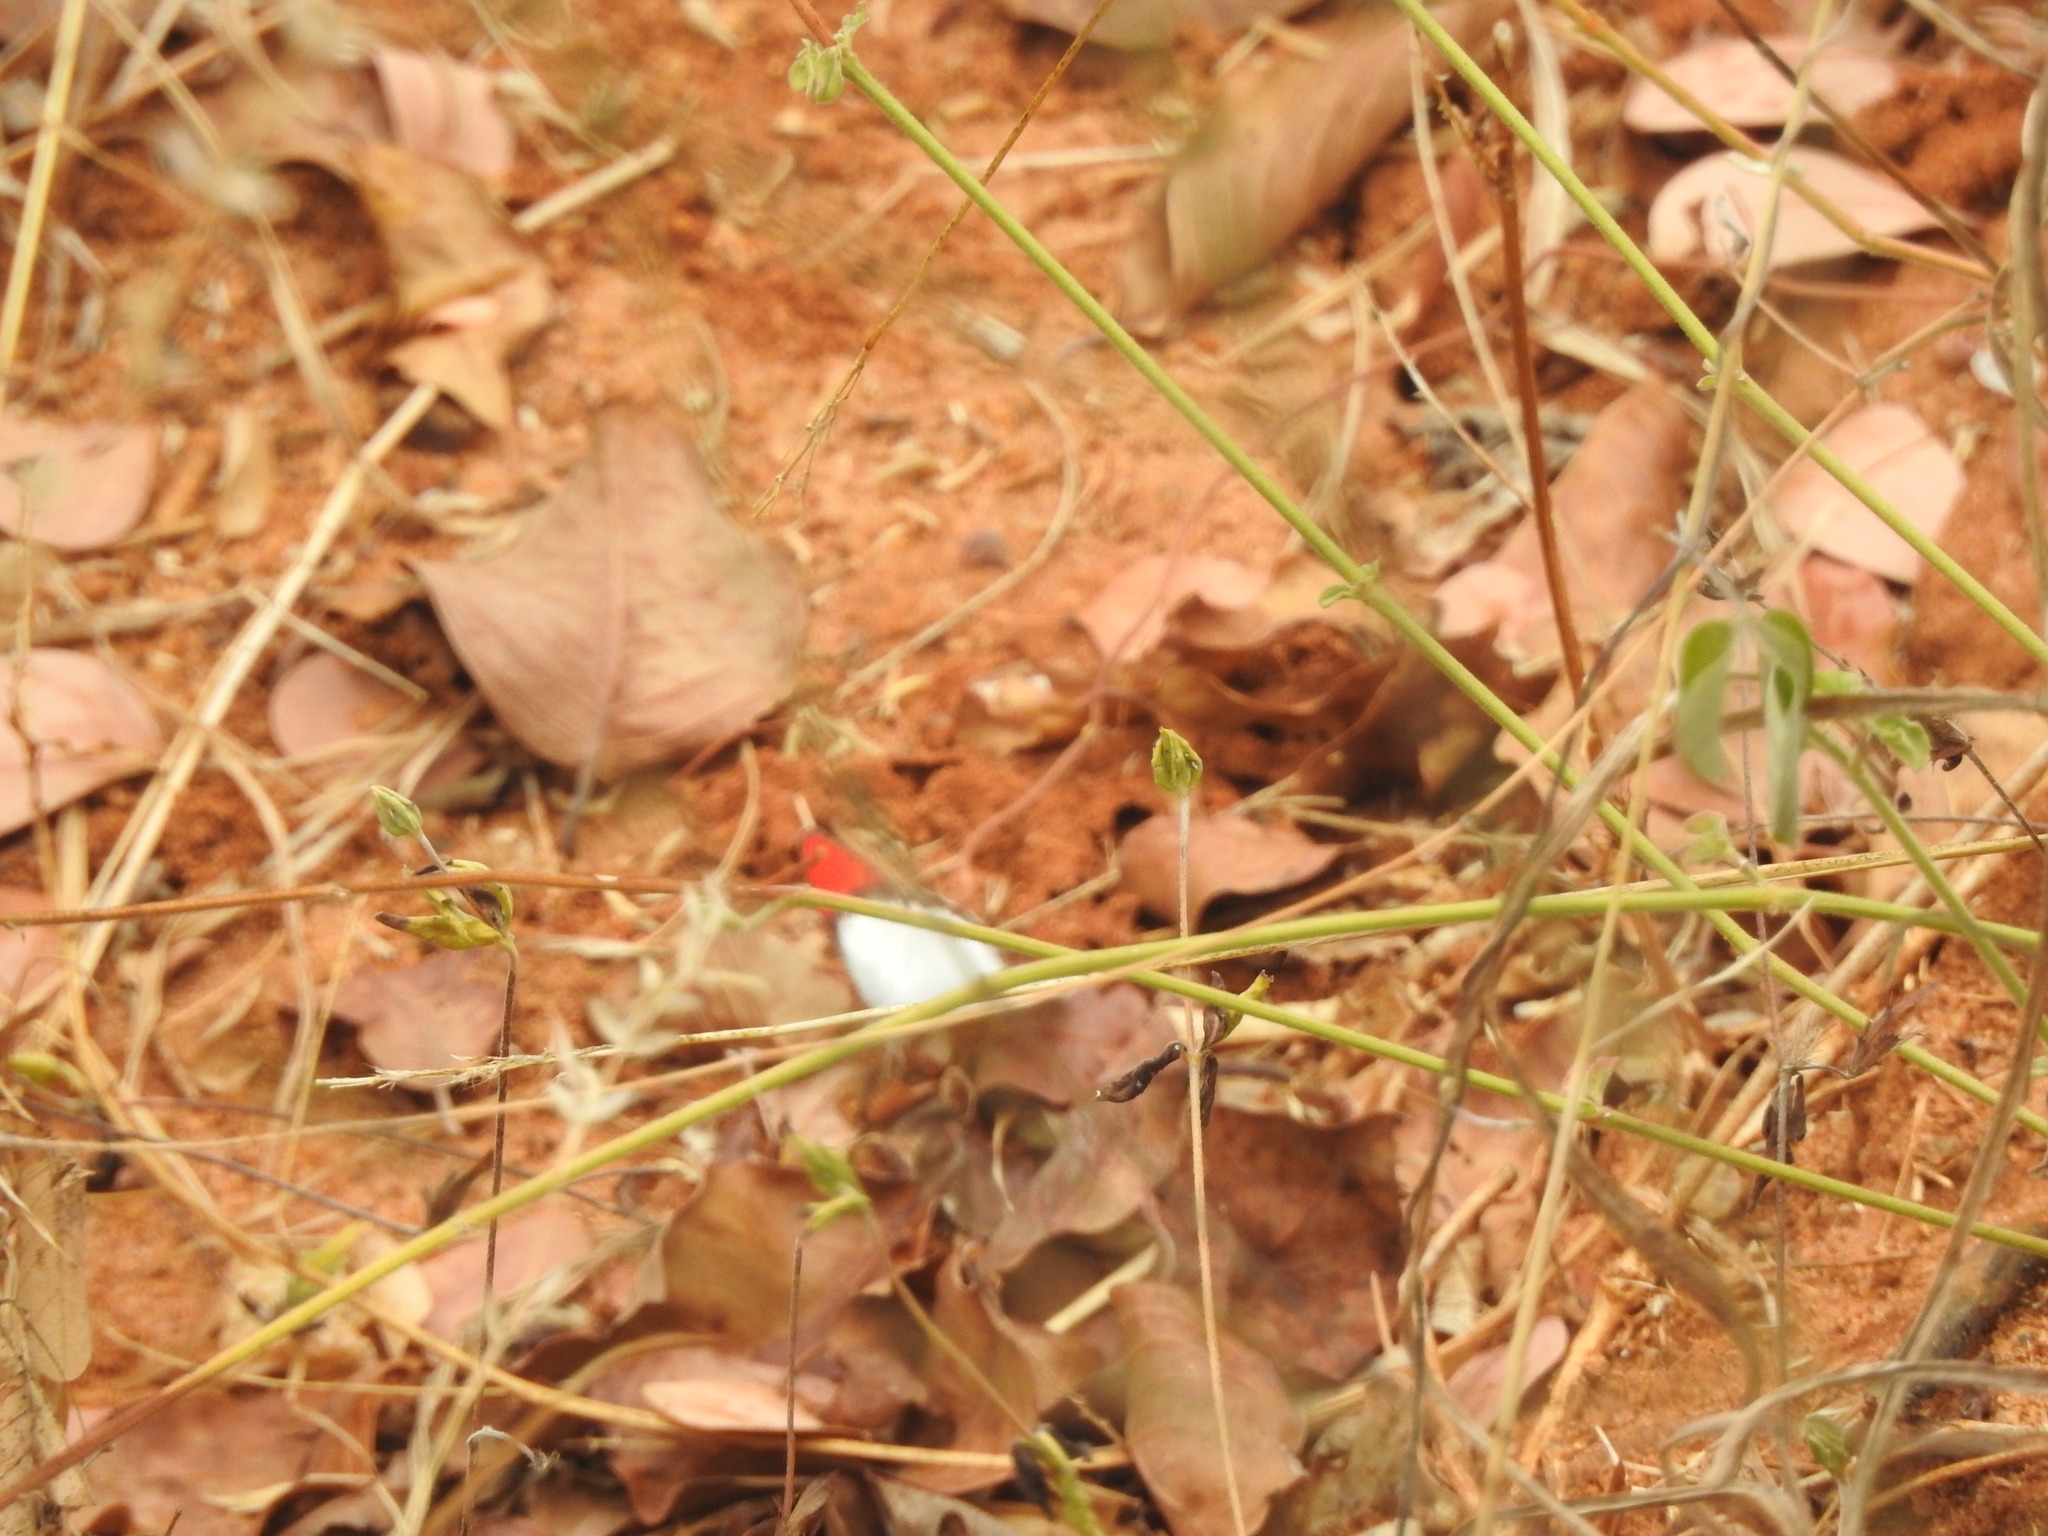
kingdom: Animalia
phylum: Arthropoda
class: Insecta
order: Lepidoptera
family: Pieridae
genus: Colotis
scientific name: Colotis danae
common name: Crimson tip
